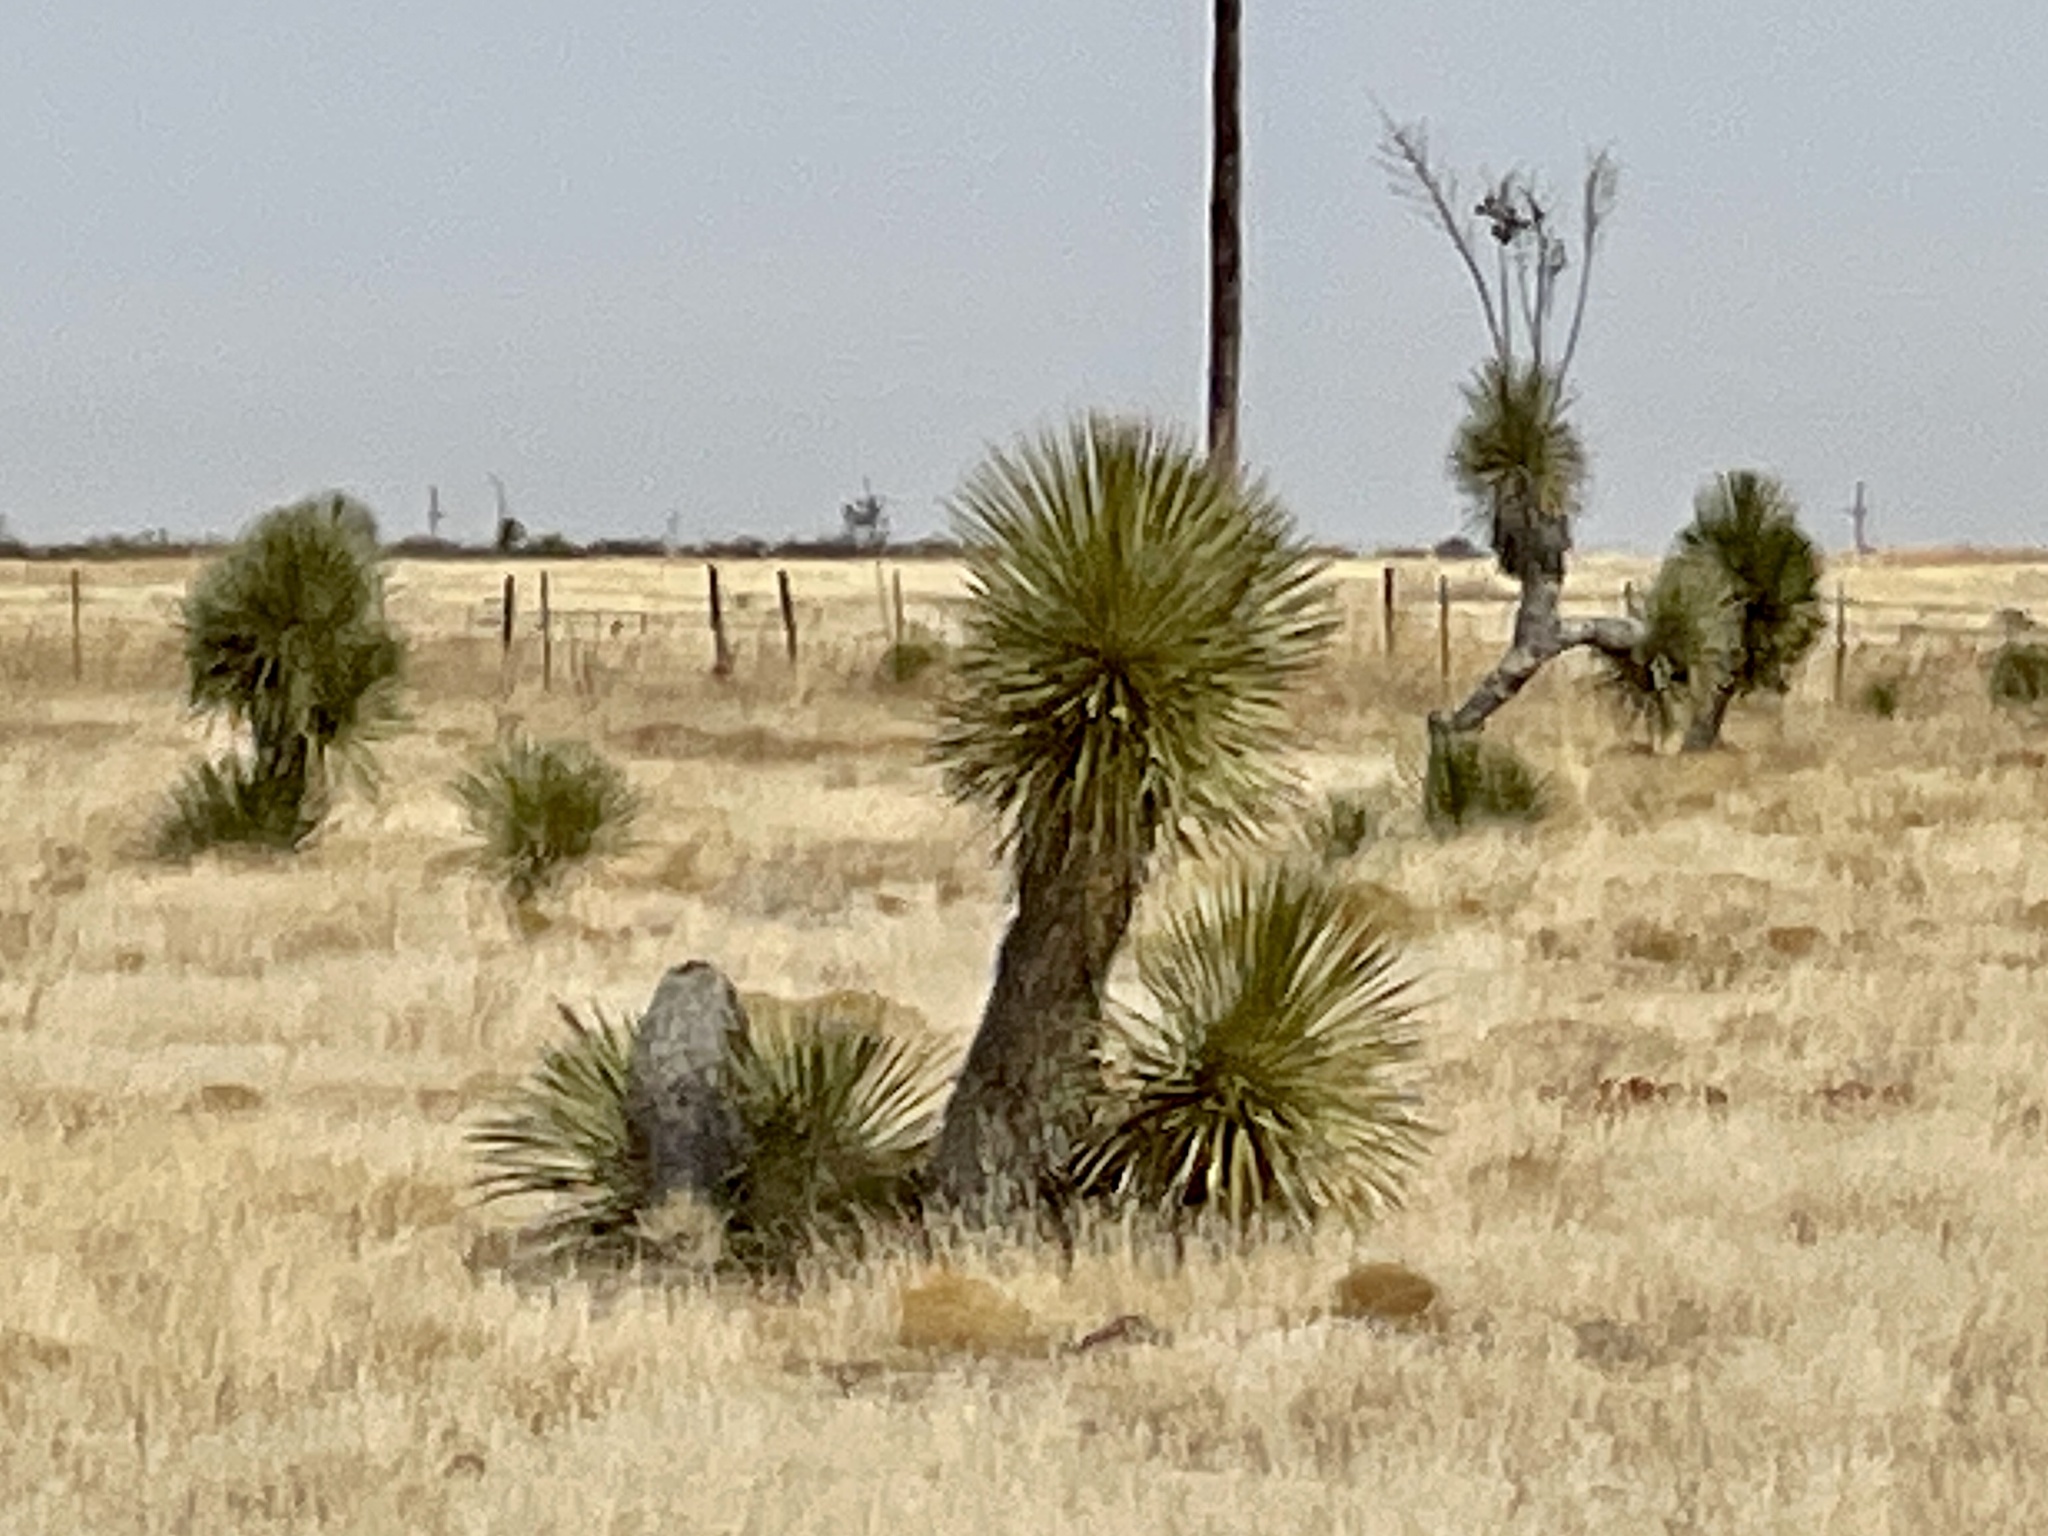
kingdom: Plantae
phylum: Tracheophyta
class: Liliopsida
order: Asparagales
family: Asparagaceae
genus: Yucca
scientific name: Yucca elata
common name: Palmella
